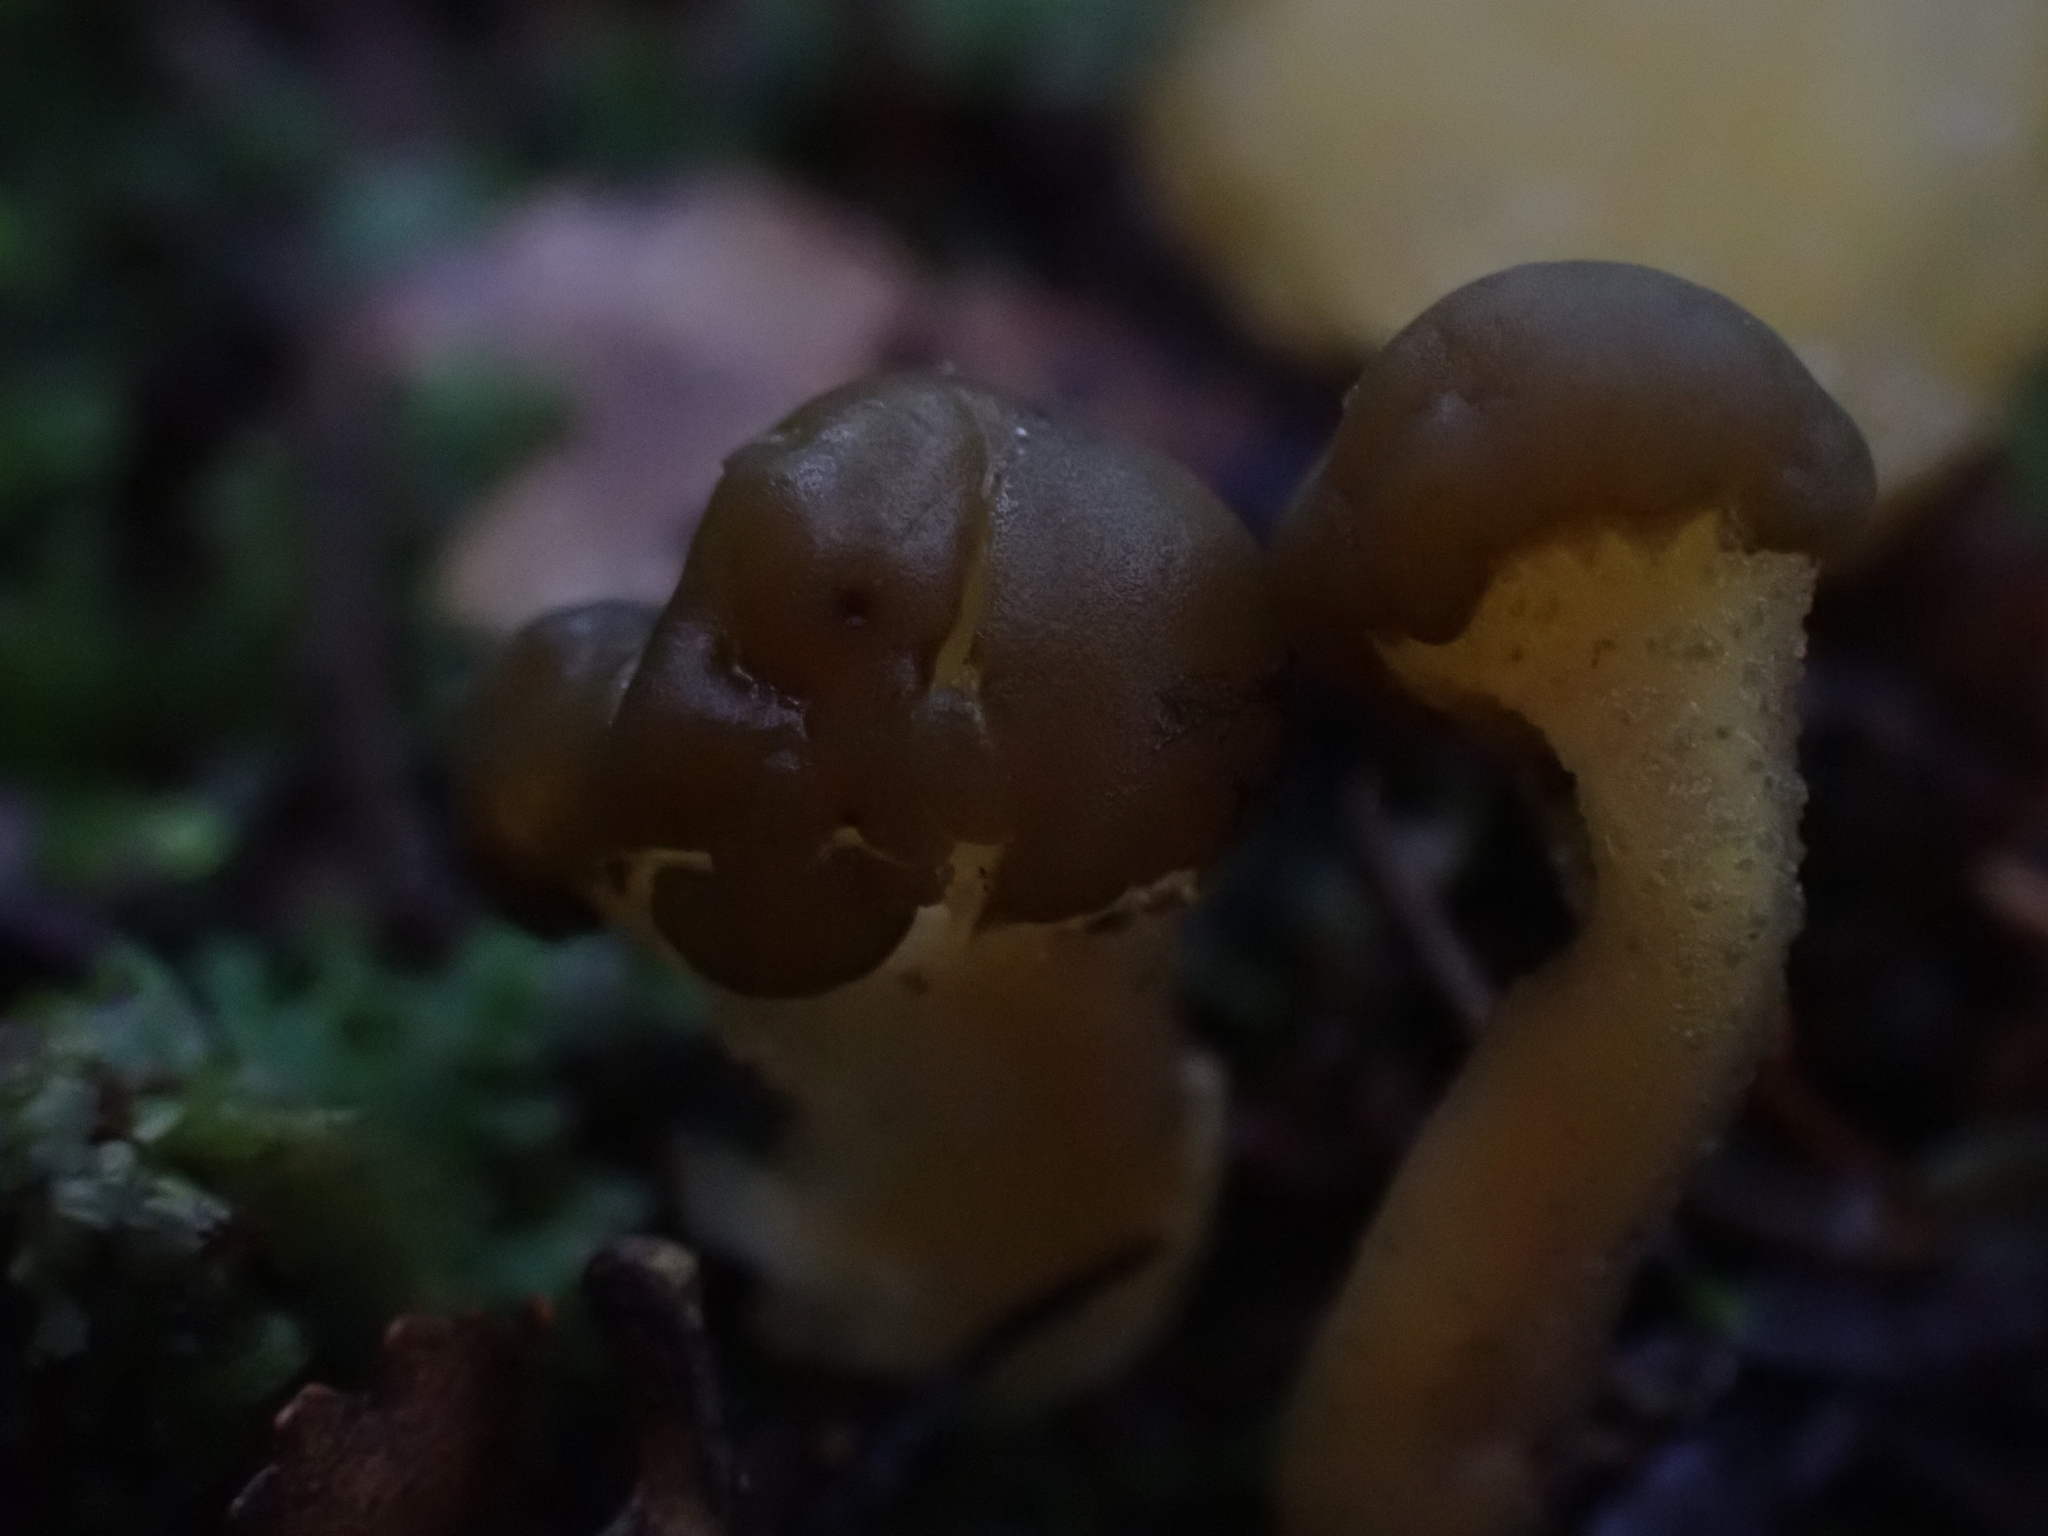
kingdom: Fungi
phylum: Ascomycota
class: Leotiomycetes
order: Leotiales
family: Leotiaceae
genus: Leotia
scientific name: Leotia lubrica
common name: Jellybaby
